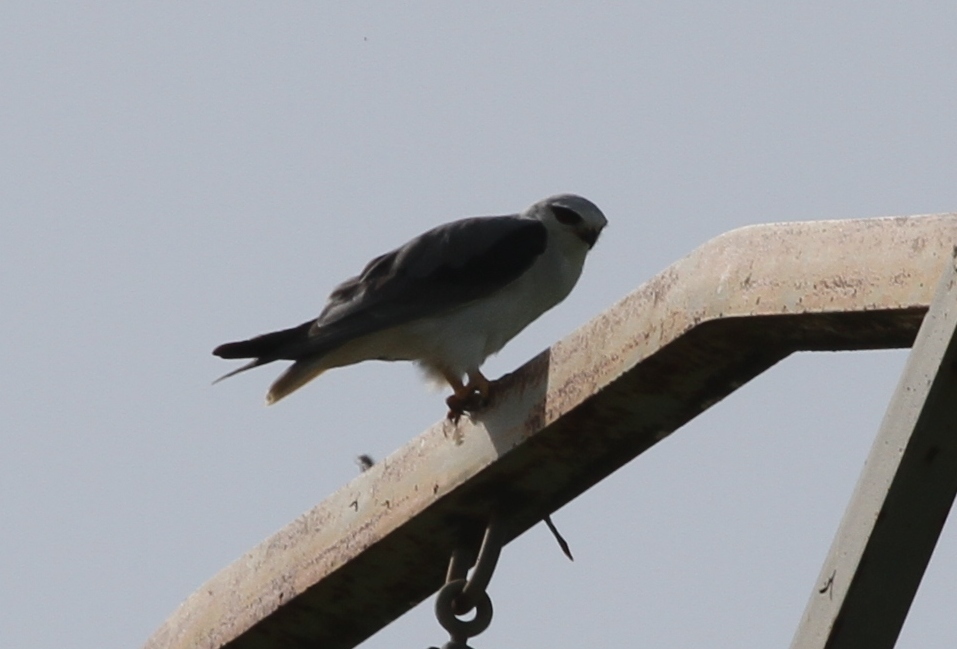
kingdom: Animalia
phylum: Chordata
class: Aves
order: Accipitriformes
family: Accipitridae
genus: Elanus
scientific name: Elanus caeruleus
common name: Black-winged kite
